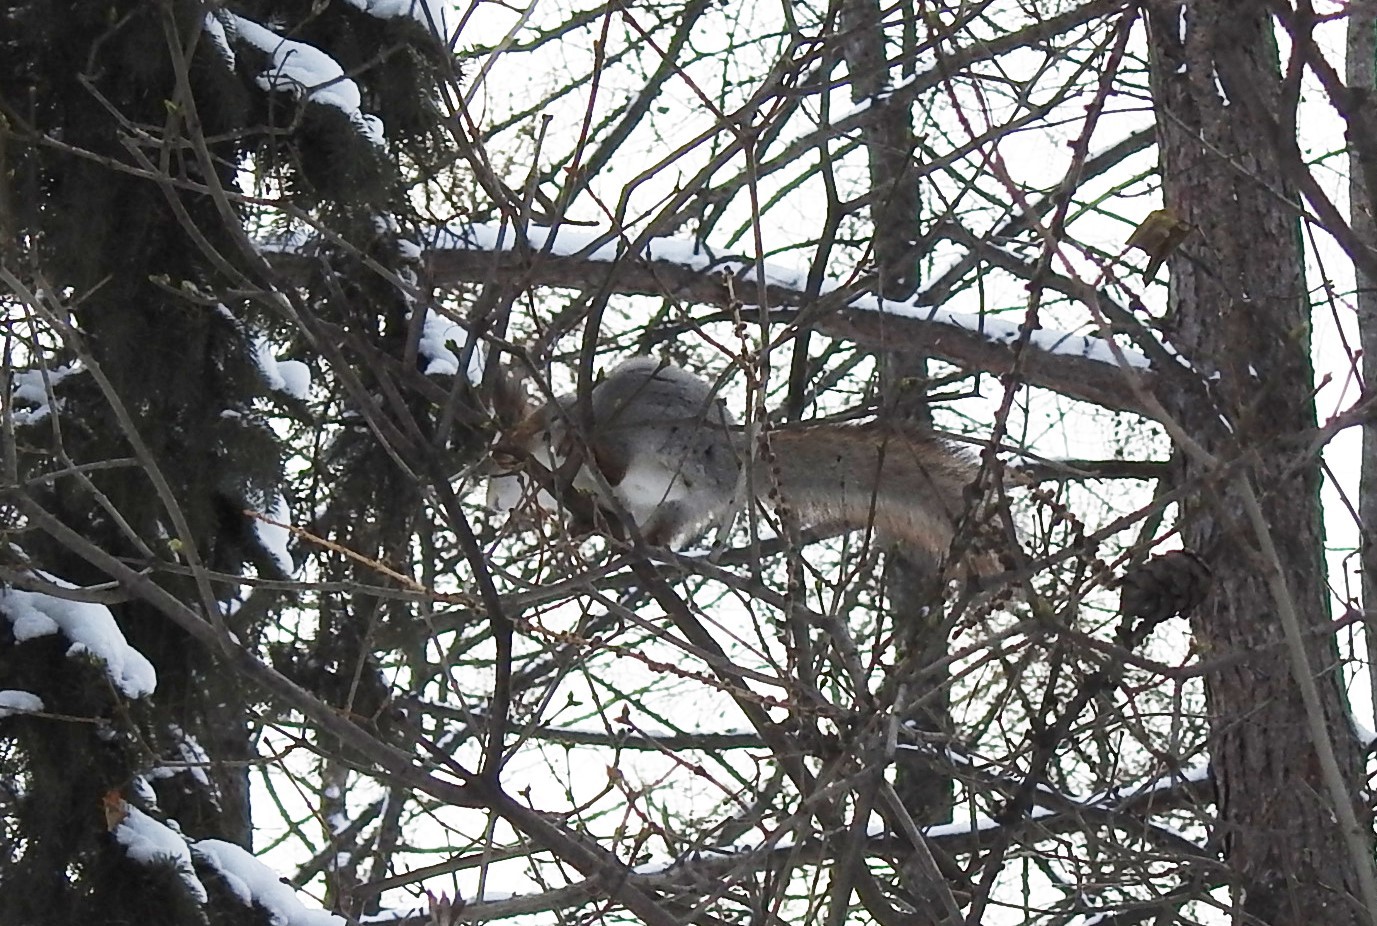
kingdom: Animalia
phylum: Chordata
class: Mammalia
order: Rodentia
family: Sciuridae
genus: Sciurus
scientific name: Sciurus vulgaris
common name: Eurasian red squirrel
